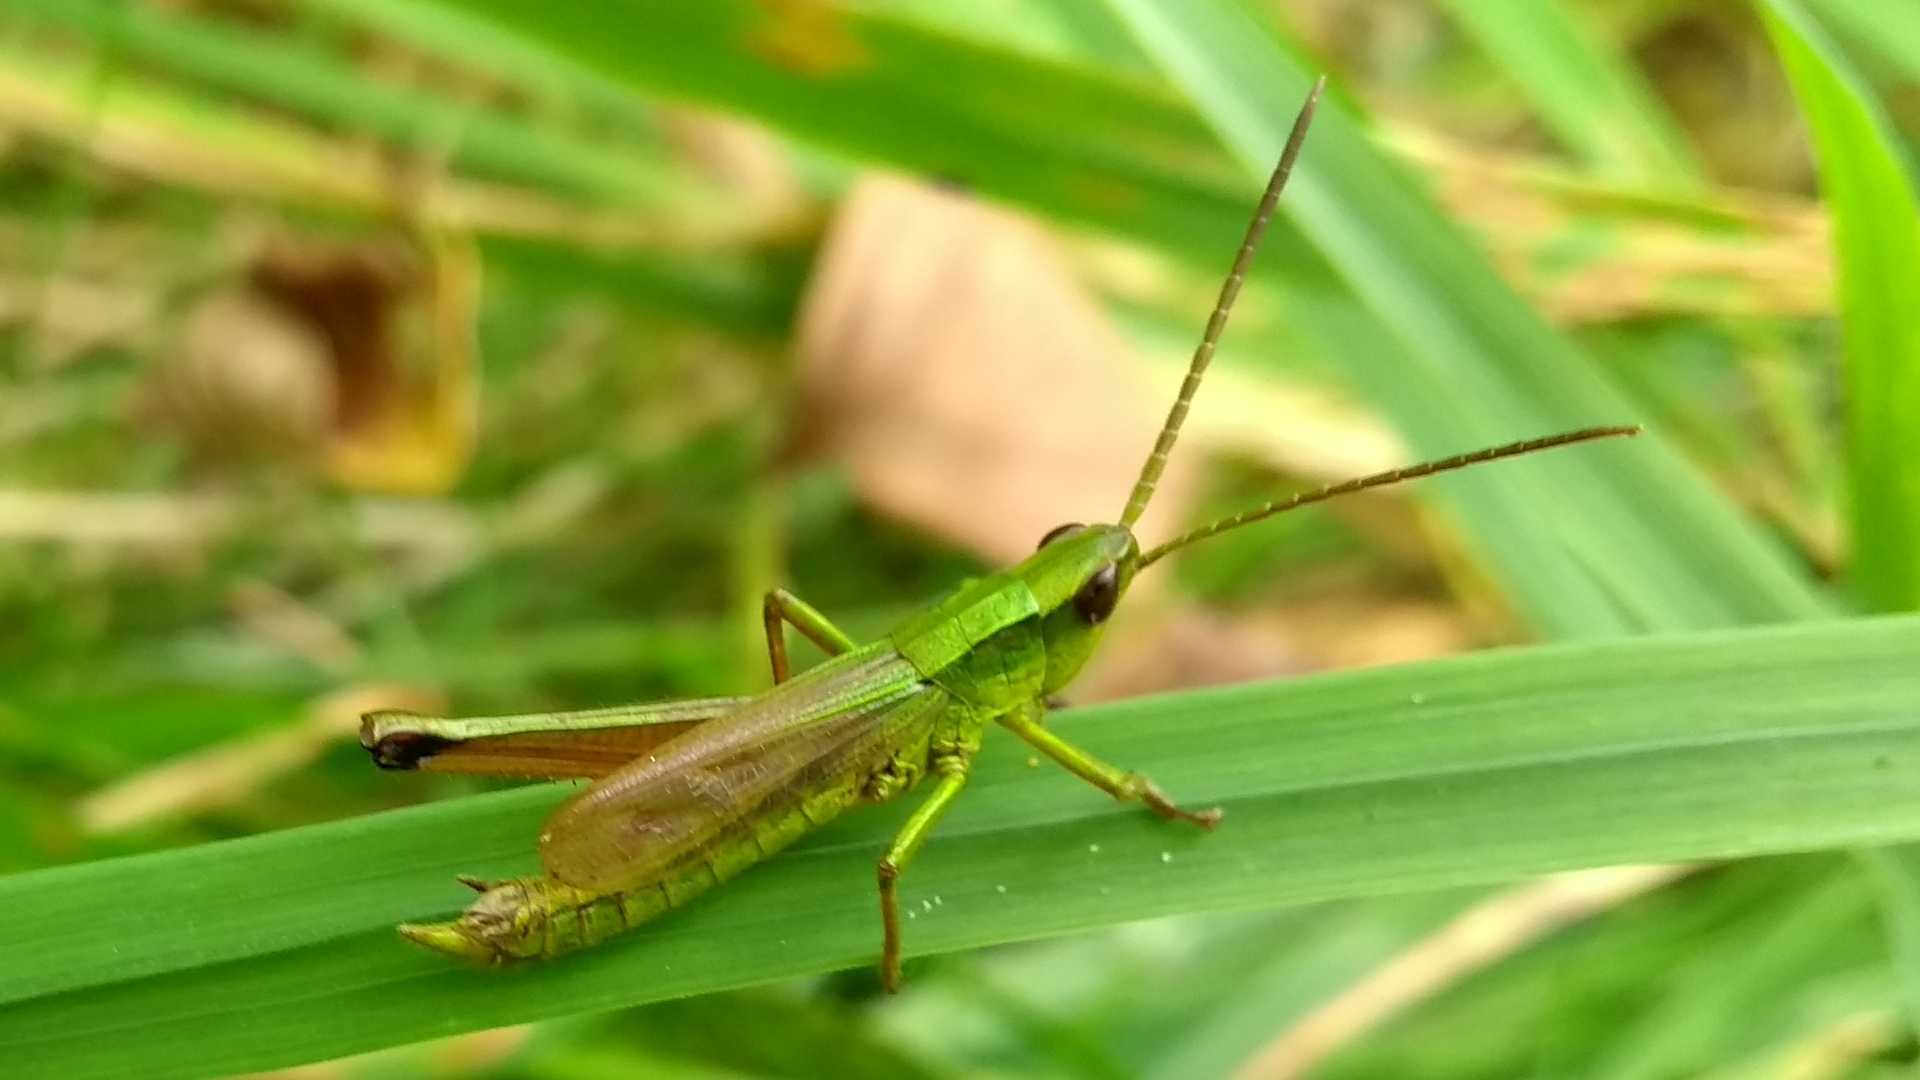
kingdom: Animalia
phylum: Arthropoda
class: Insecta
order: Orthoptera
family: Acrididae
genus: Euthystira
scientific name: Euthystira brachyptera
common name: Small gold grasshopper
